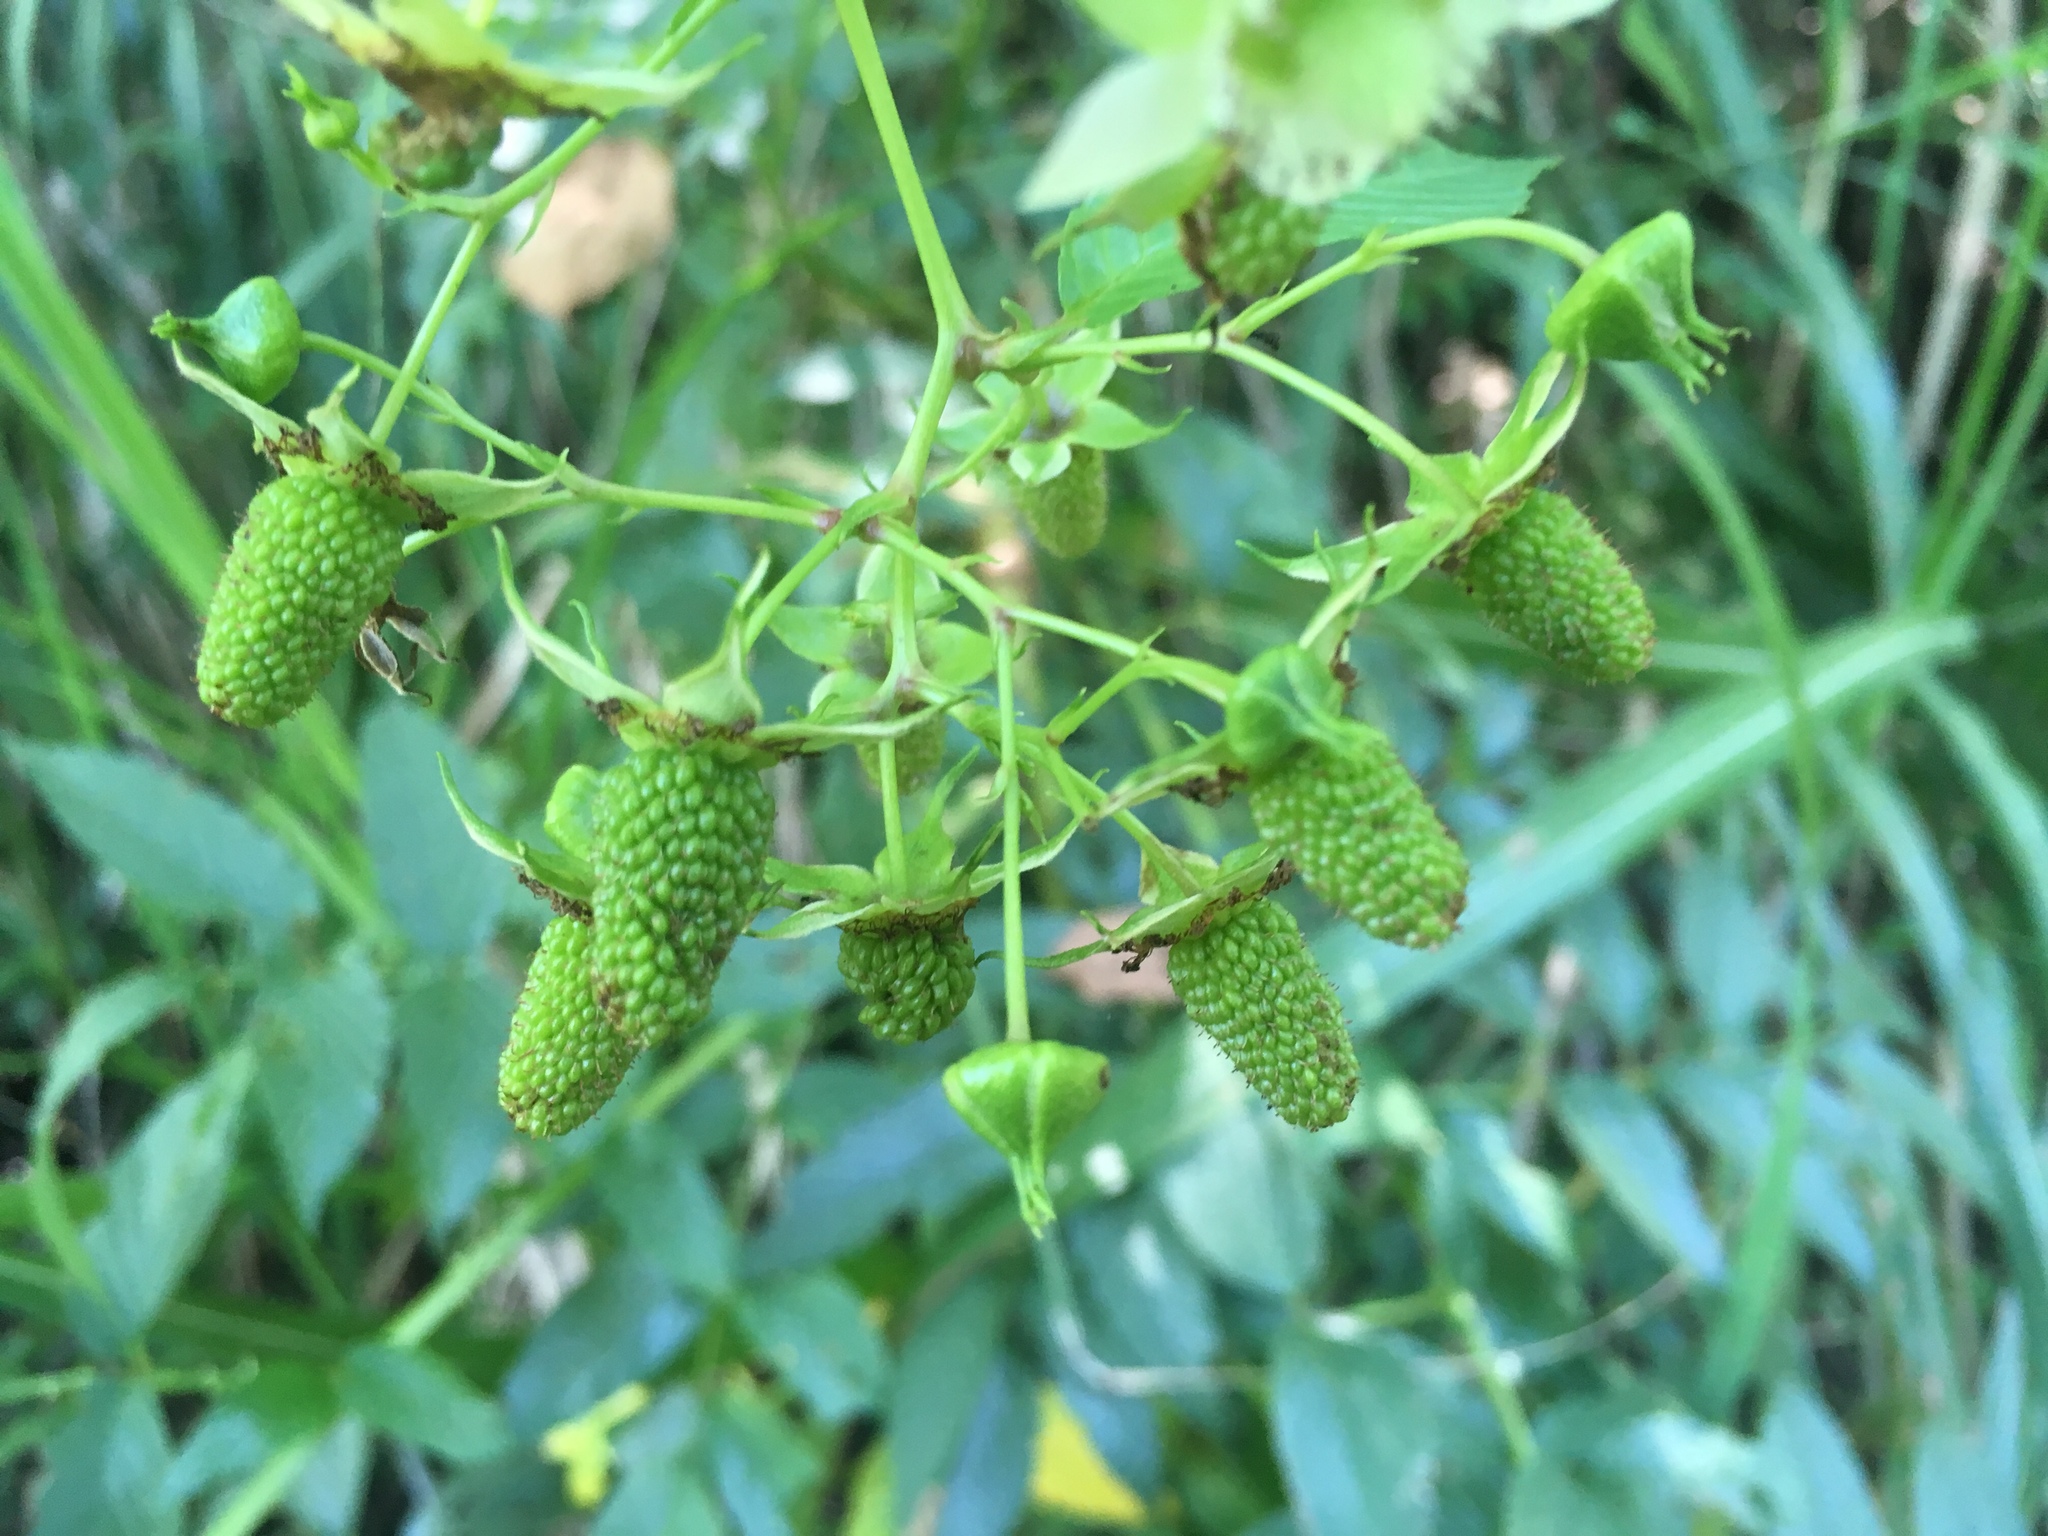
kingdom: Plantae
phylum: Tracheophyta
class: Magnoliopsida
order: Rosales
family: Rosaceae
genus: Rubus
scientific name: Rubus fraxinifolius
